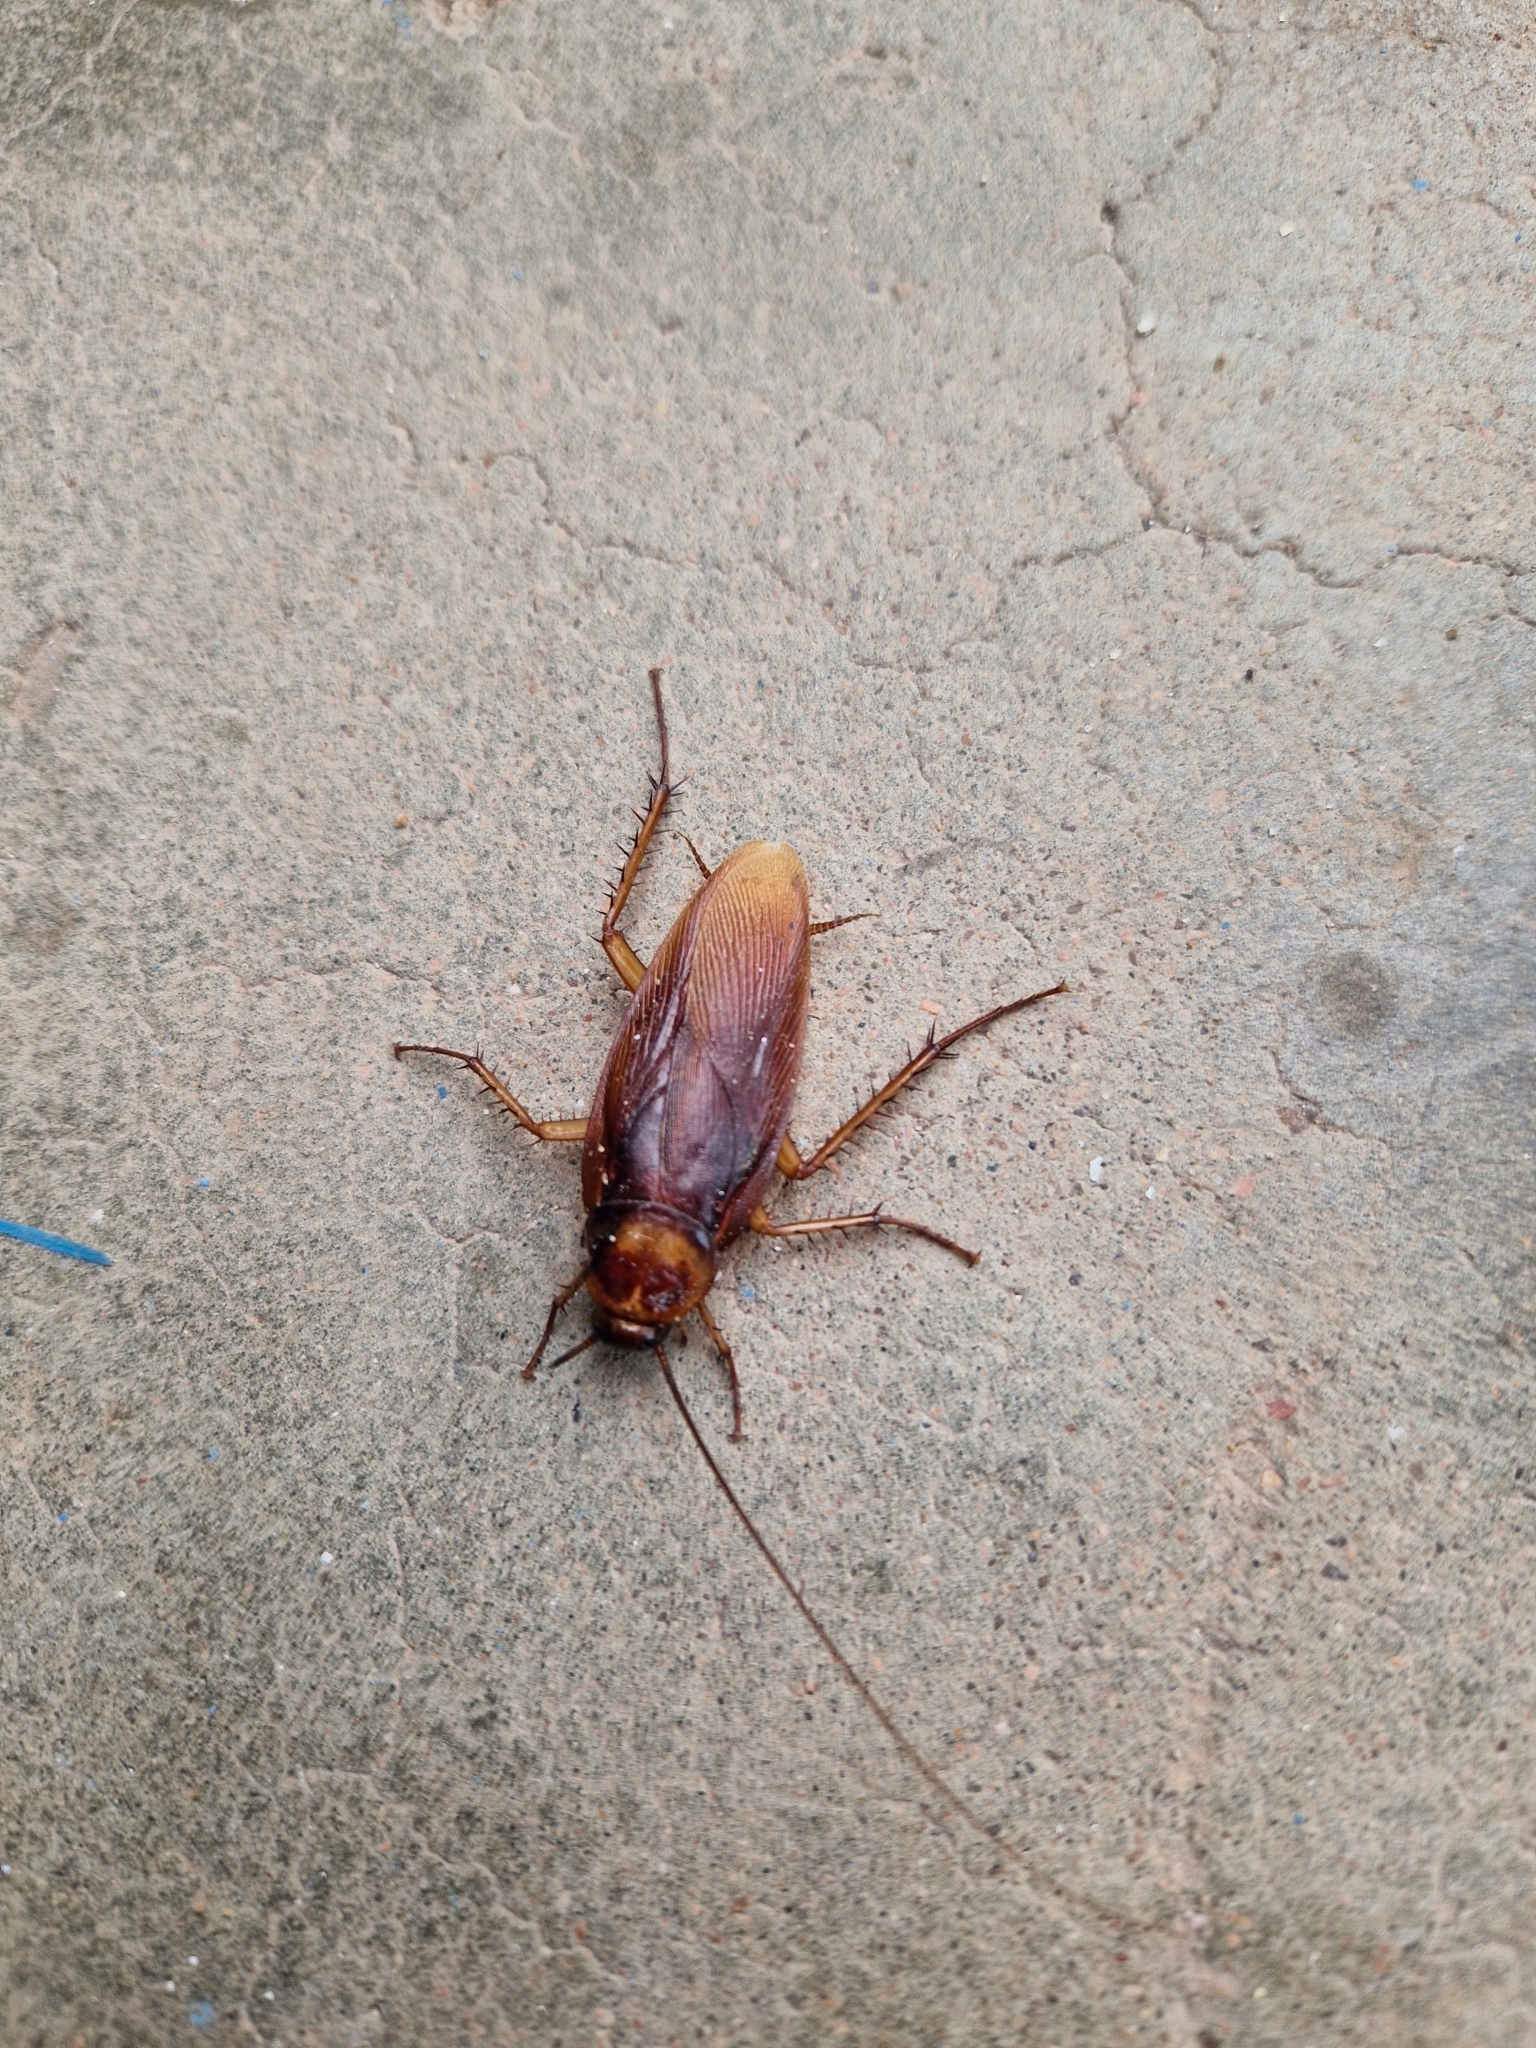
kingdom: Animalia
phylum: Arthropoda
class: Insecta
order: Blattodea
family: Blattidae
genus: Periplaneta
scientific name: Periplaneta americana
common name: American cockroach
